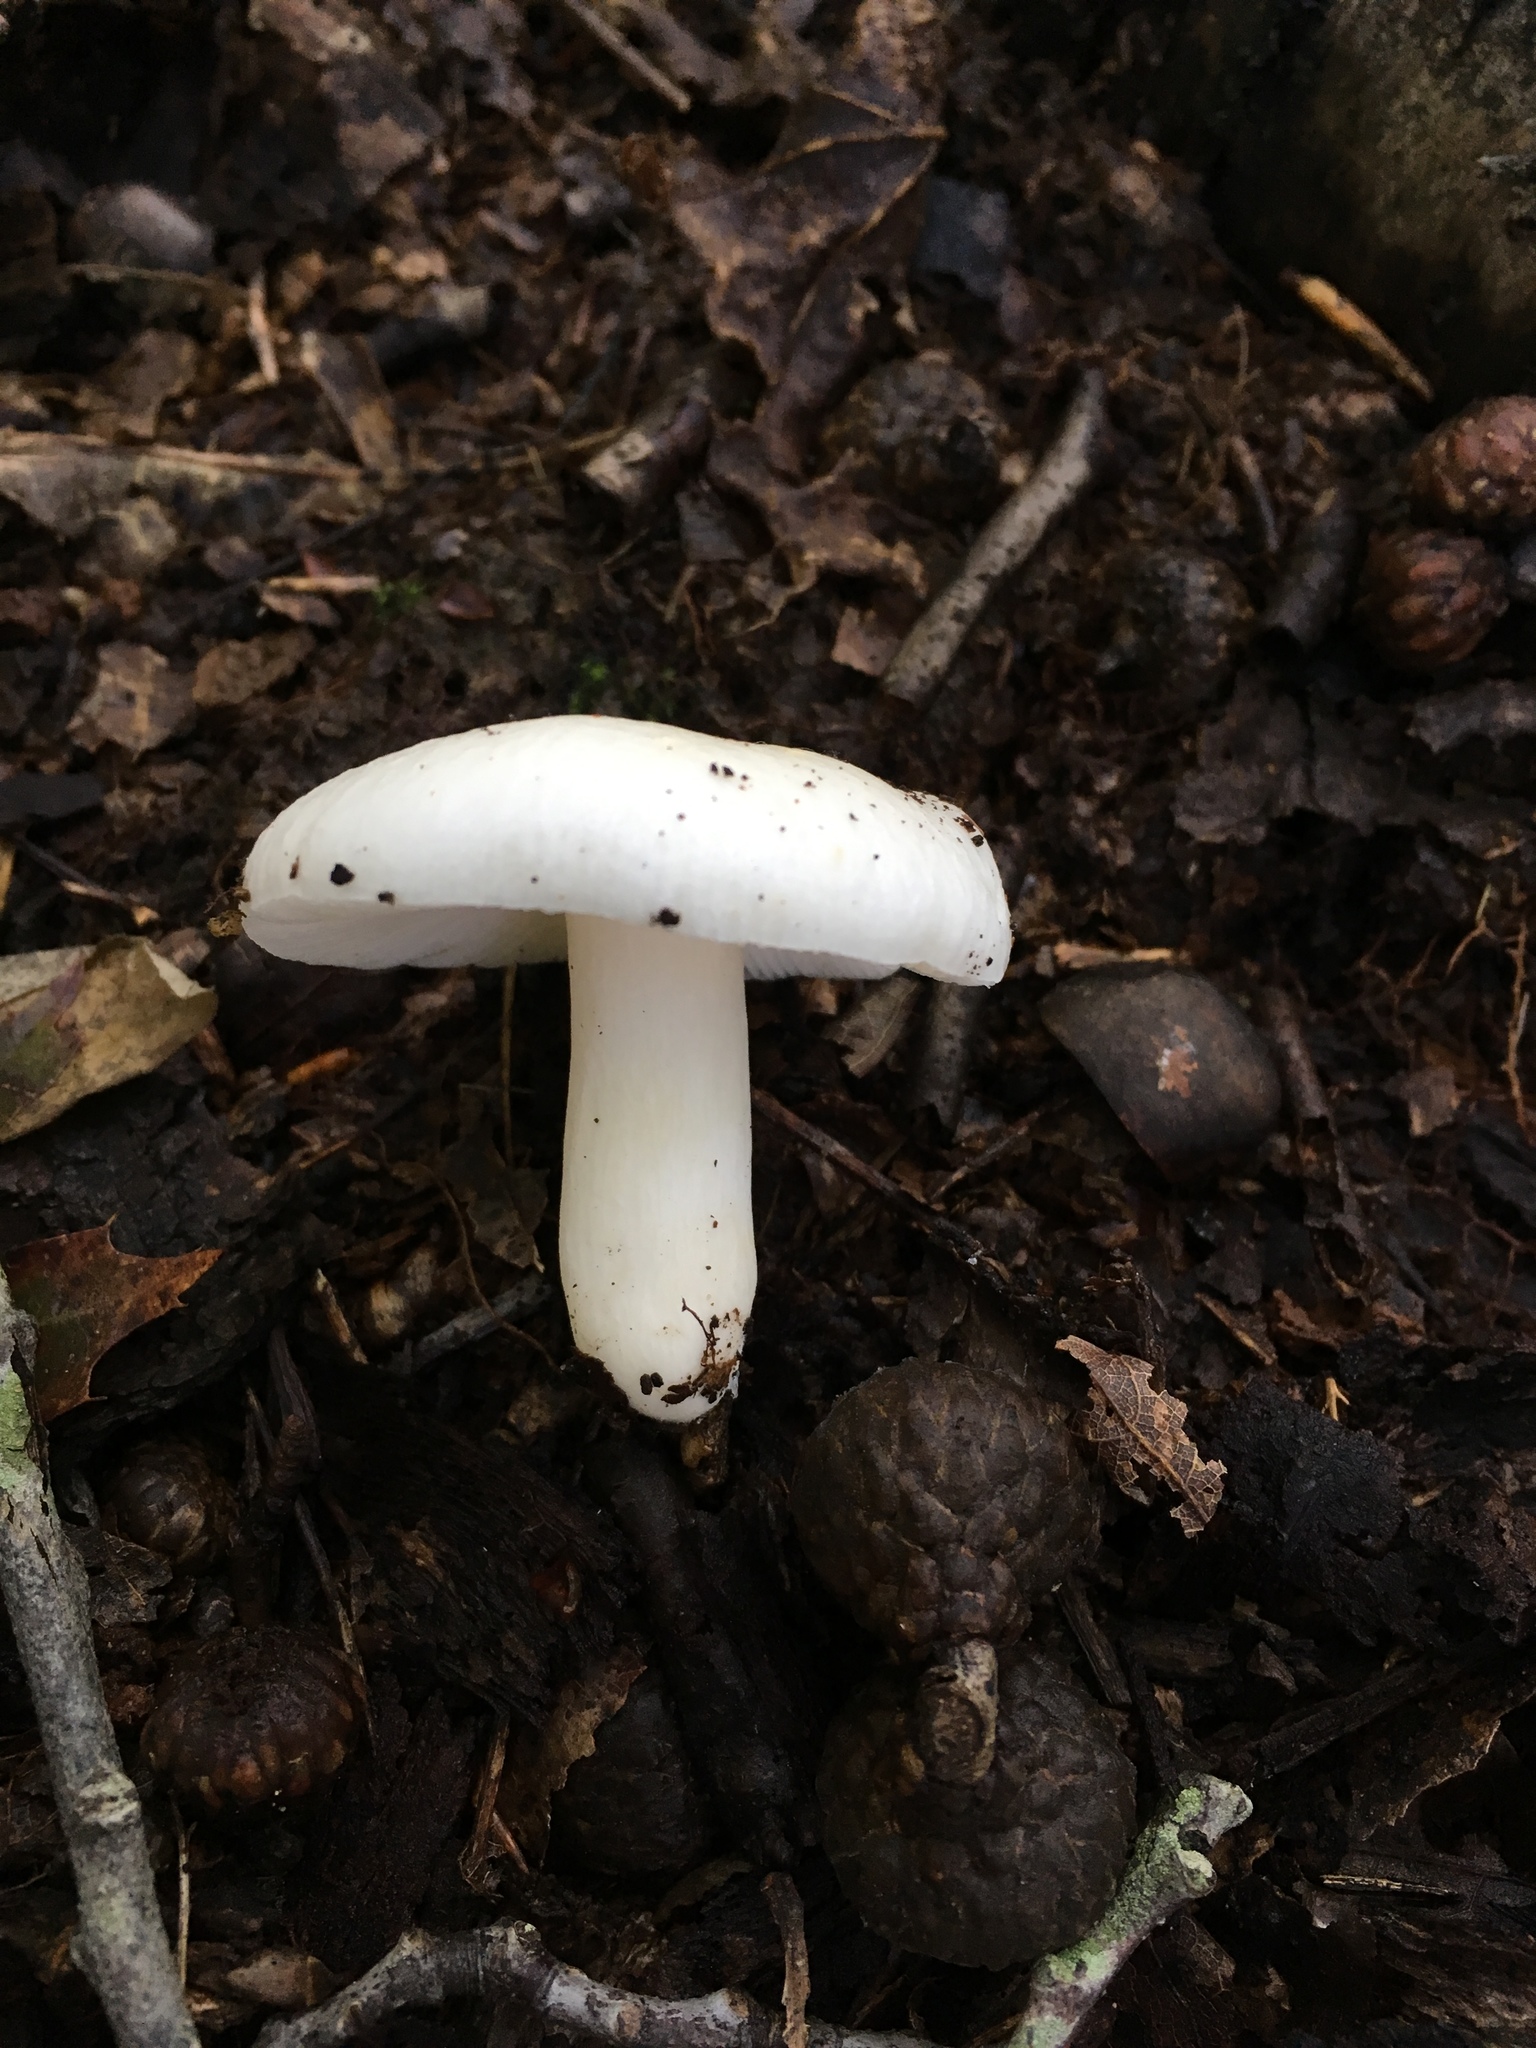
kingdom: Fungi
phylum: Basidiomycota
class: Agaricomycetes
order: Russulales
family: Russulaceae
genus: Russula
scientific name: Russula
